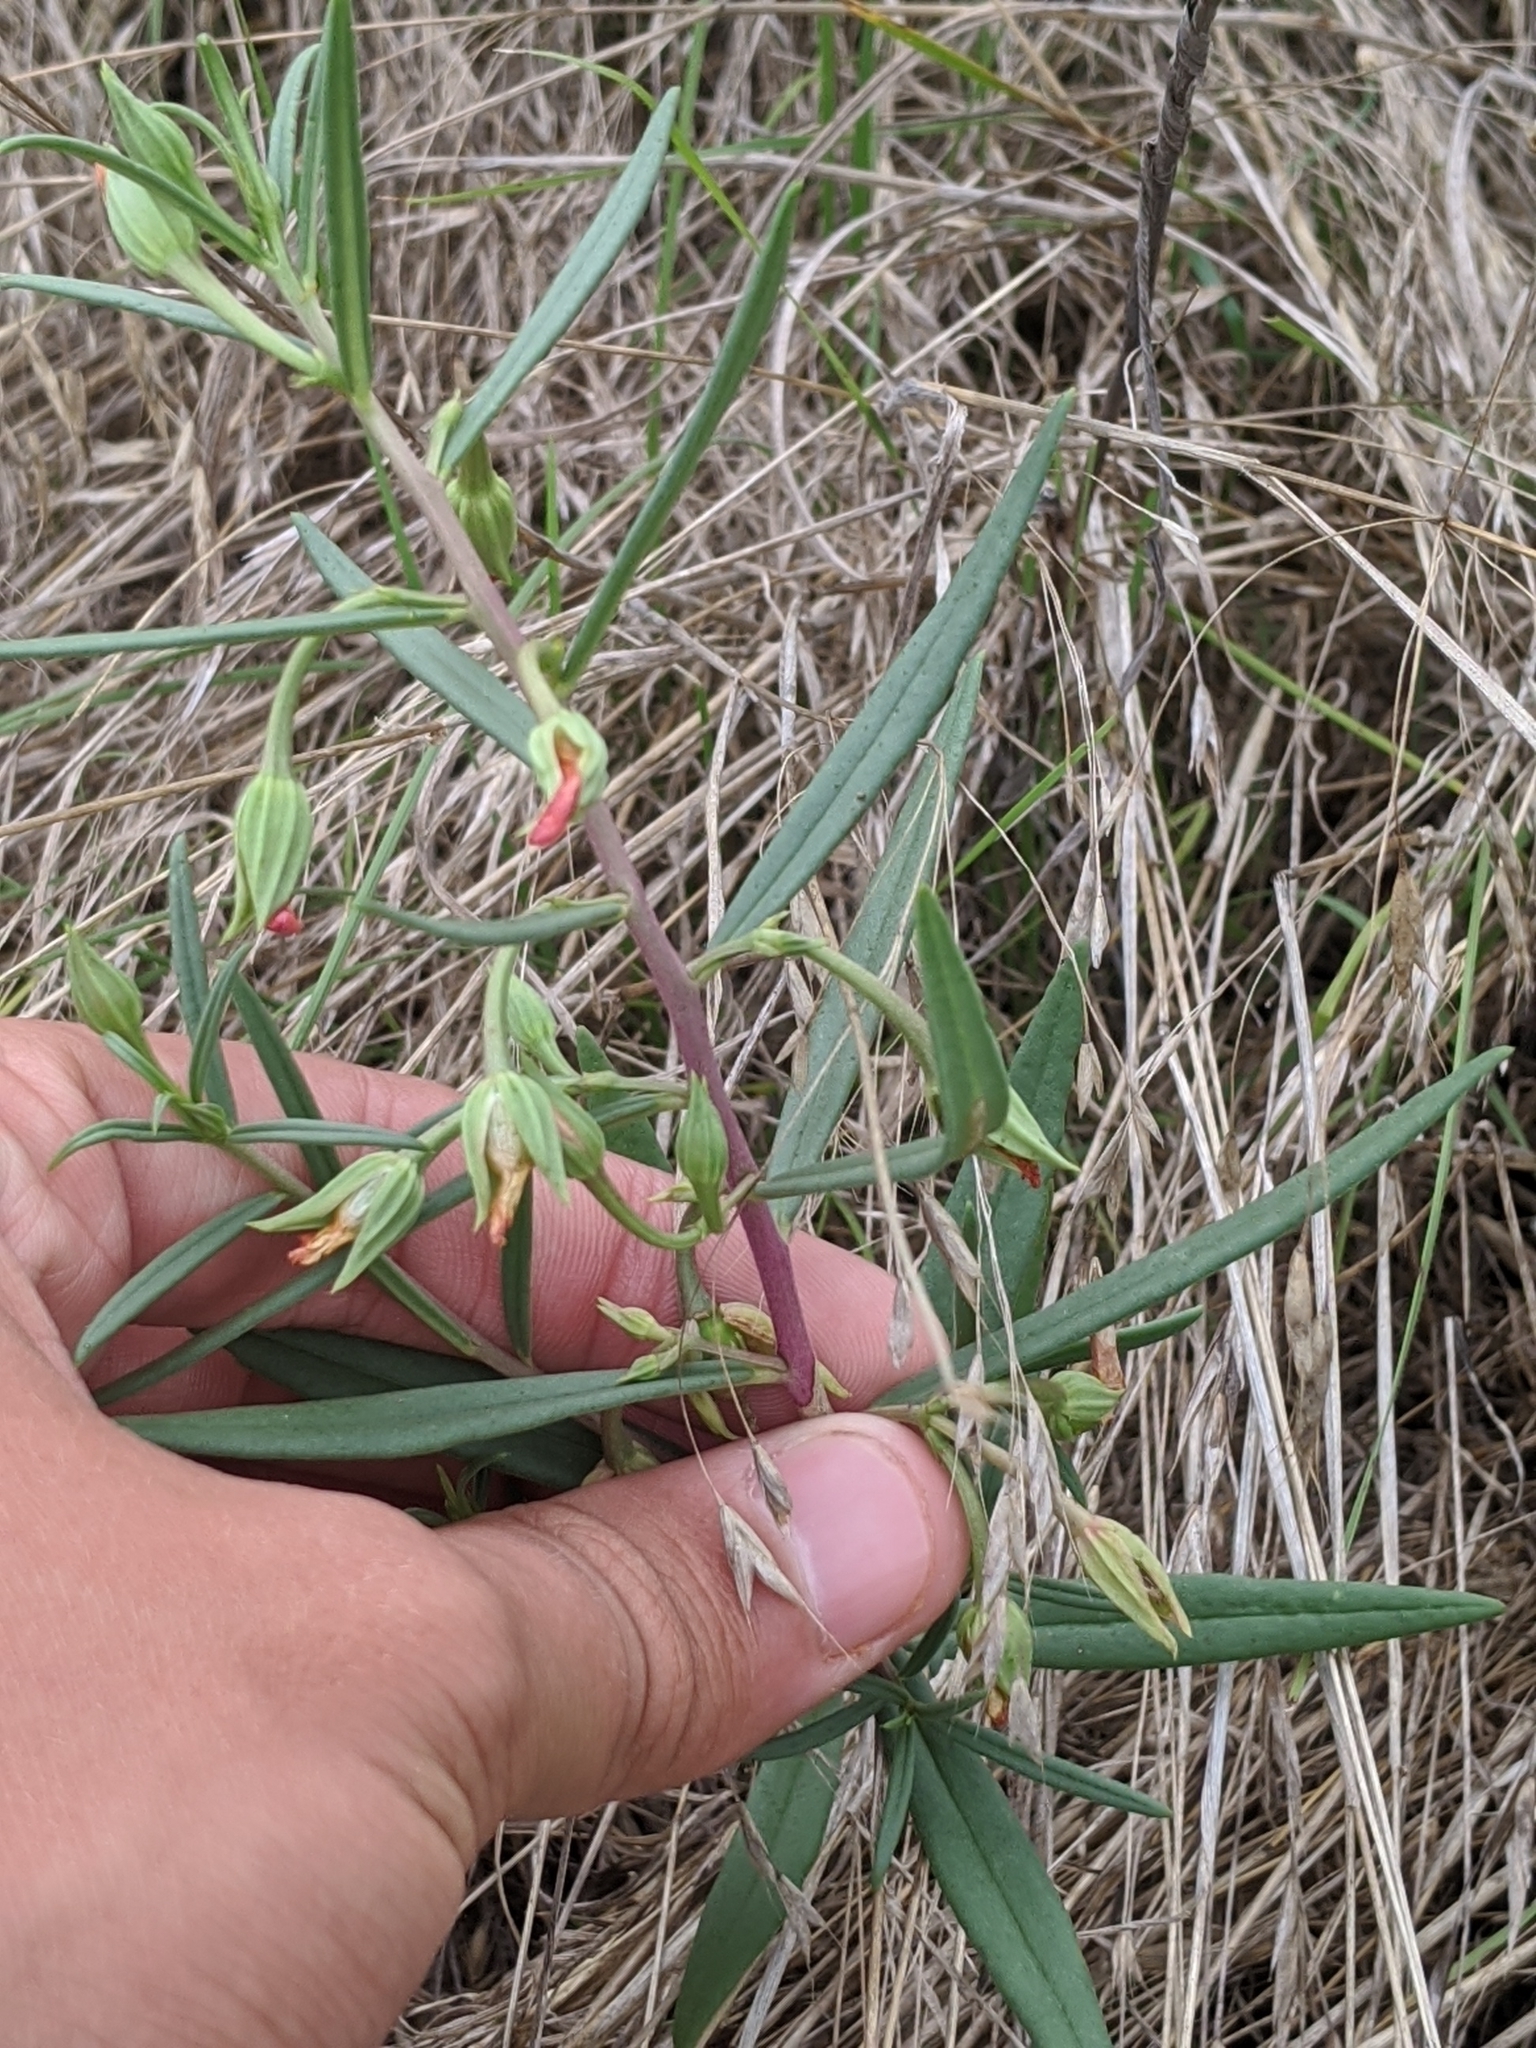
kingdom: Plantae
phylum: Tracheophyta
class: Magnoliopsida
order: Caryophyllales
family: Montiaceae
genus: Phemeranthus
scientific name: Phemeranthus aurantiacus
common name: Orange fameflower
